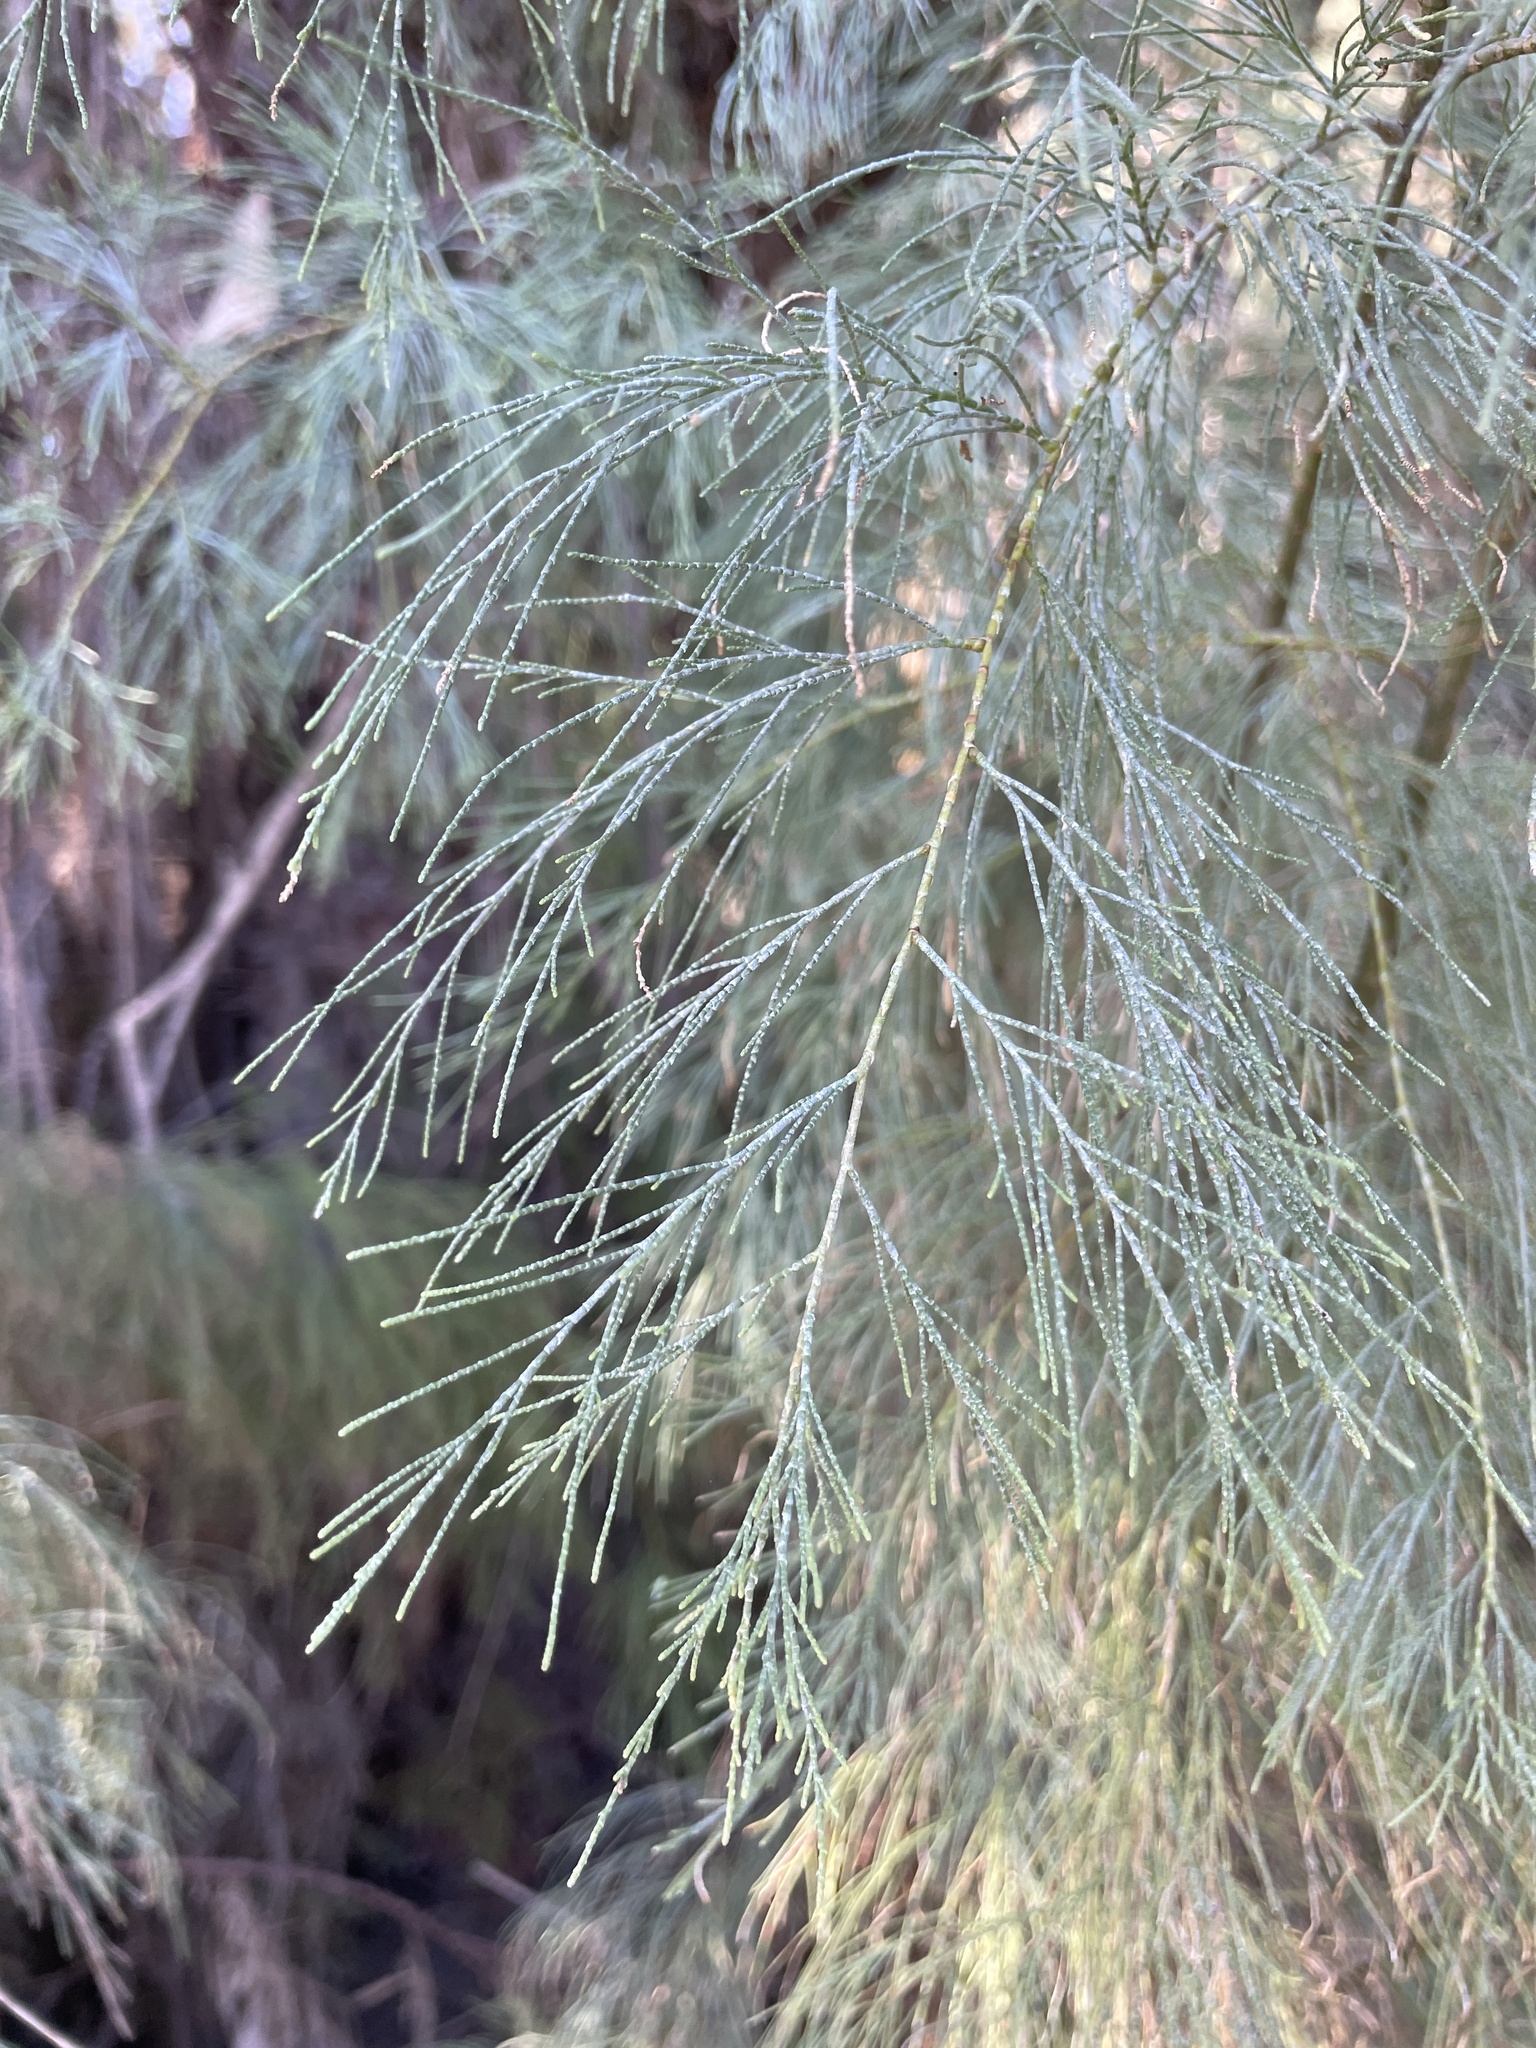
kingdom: Plantae
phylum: Tracheophyta
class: Magnoliopsida
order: Caryophyllales
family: Tamaricaceae
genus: Tamarix
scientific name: Tamarix aphylla
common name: Athel tamarisk
